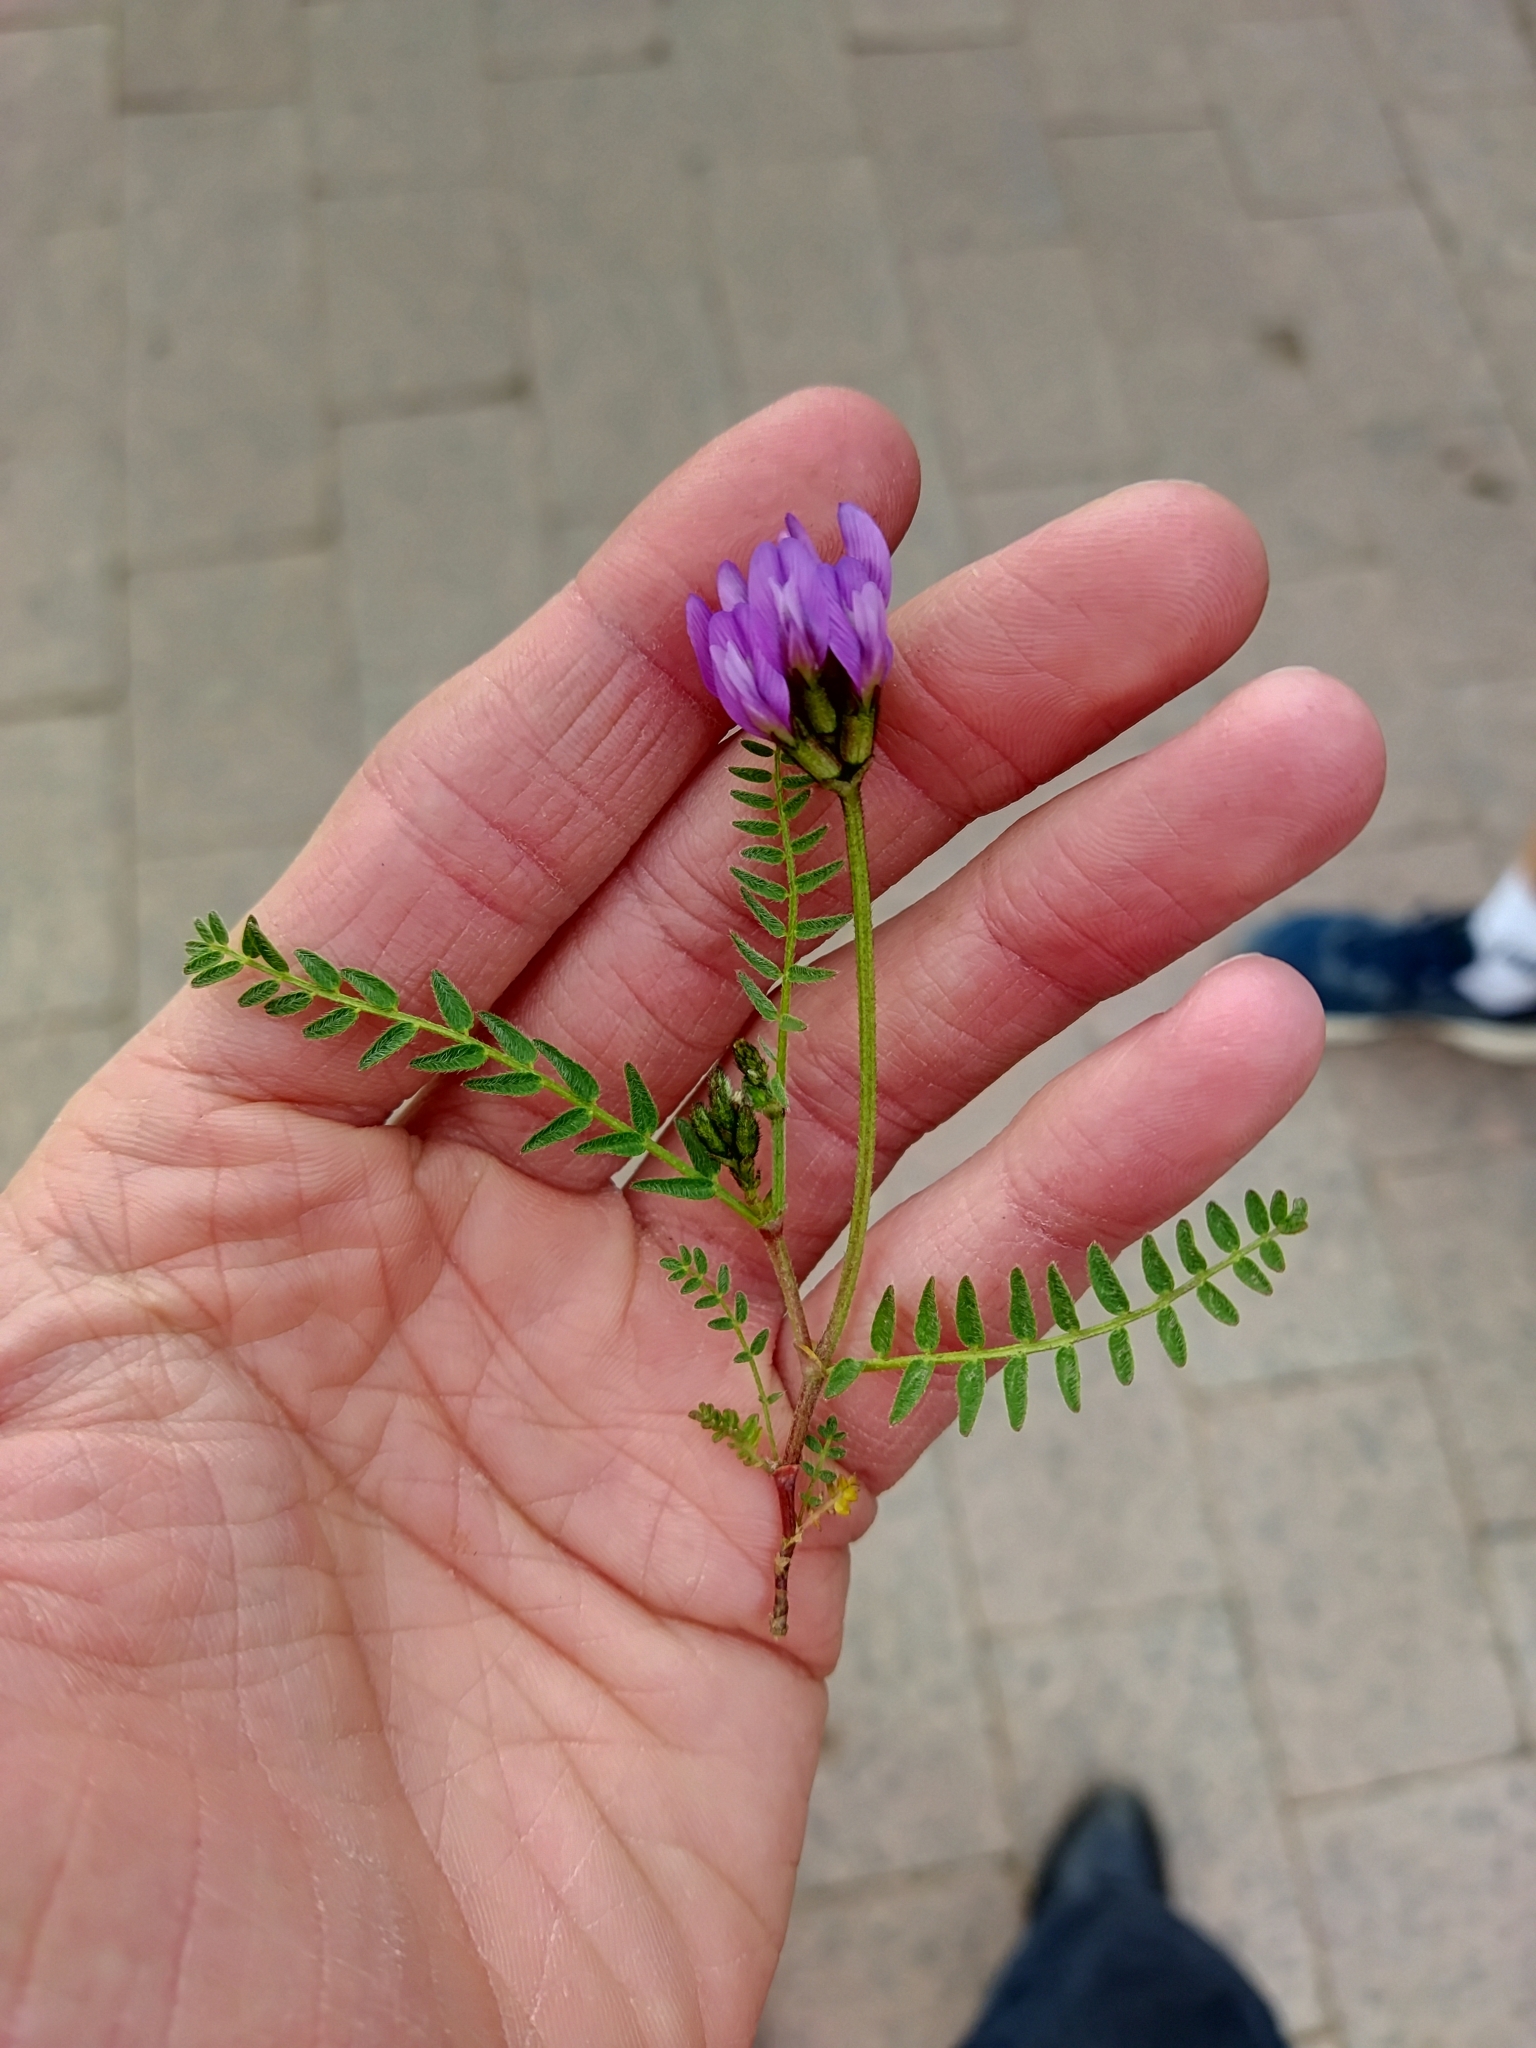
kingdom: Plantae
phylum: Tracheophyta
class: Magnoliopsida
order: Fabales
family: Fabaceae
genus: Astragalus
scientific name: Astragalus danicus
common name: Purple milk-vetch
